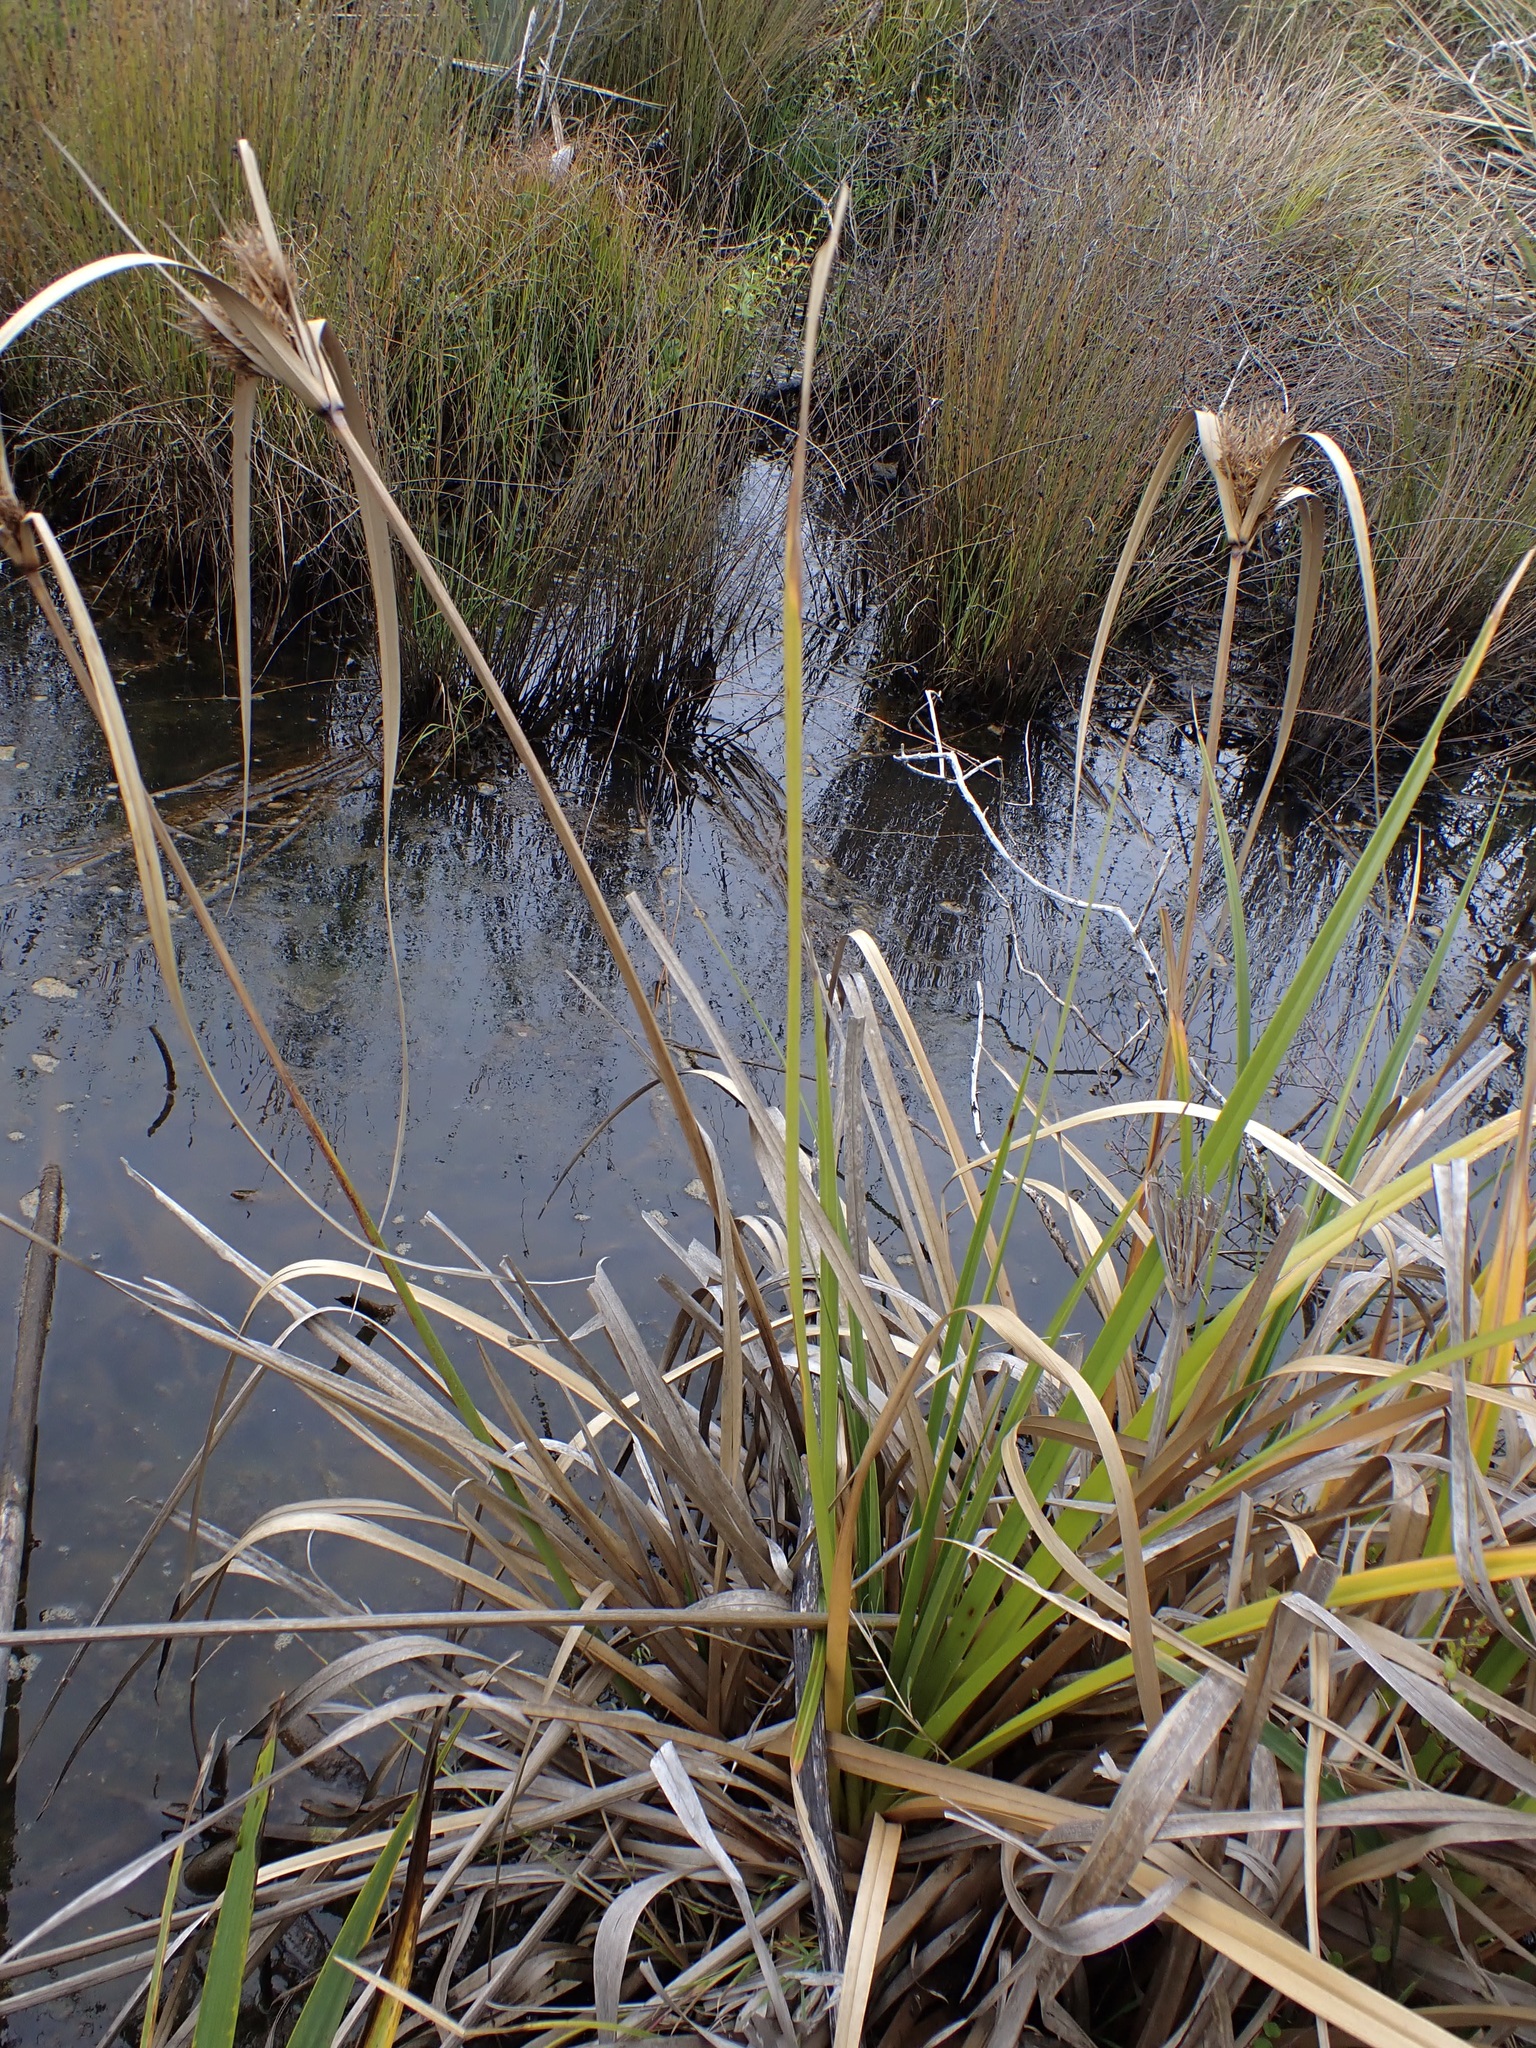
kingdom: Plantae
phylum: Tracheophyta
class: Liliopsida
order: Poales
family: Cyperaceae
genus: Cyperus
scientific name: Cyperus ustulatus
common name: Giant umbrella-sedge
